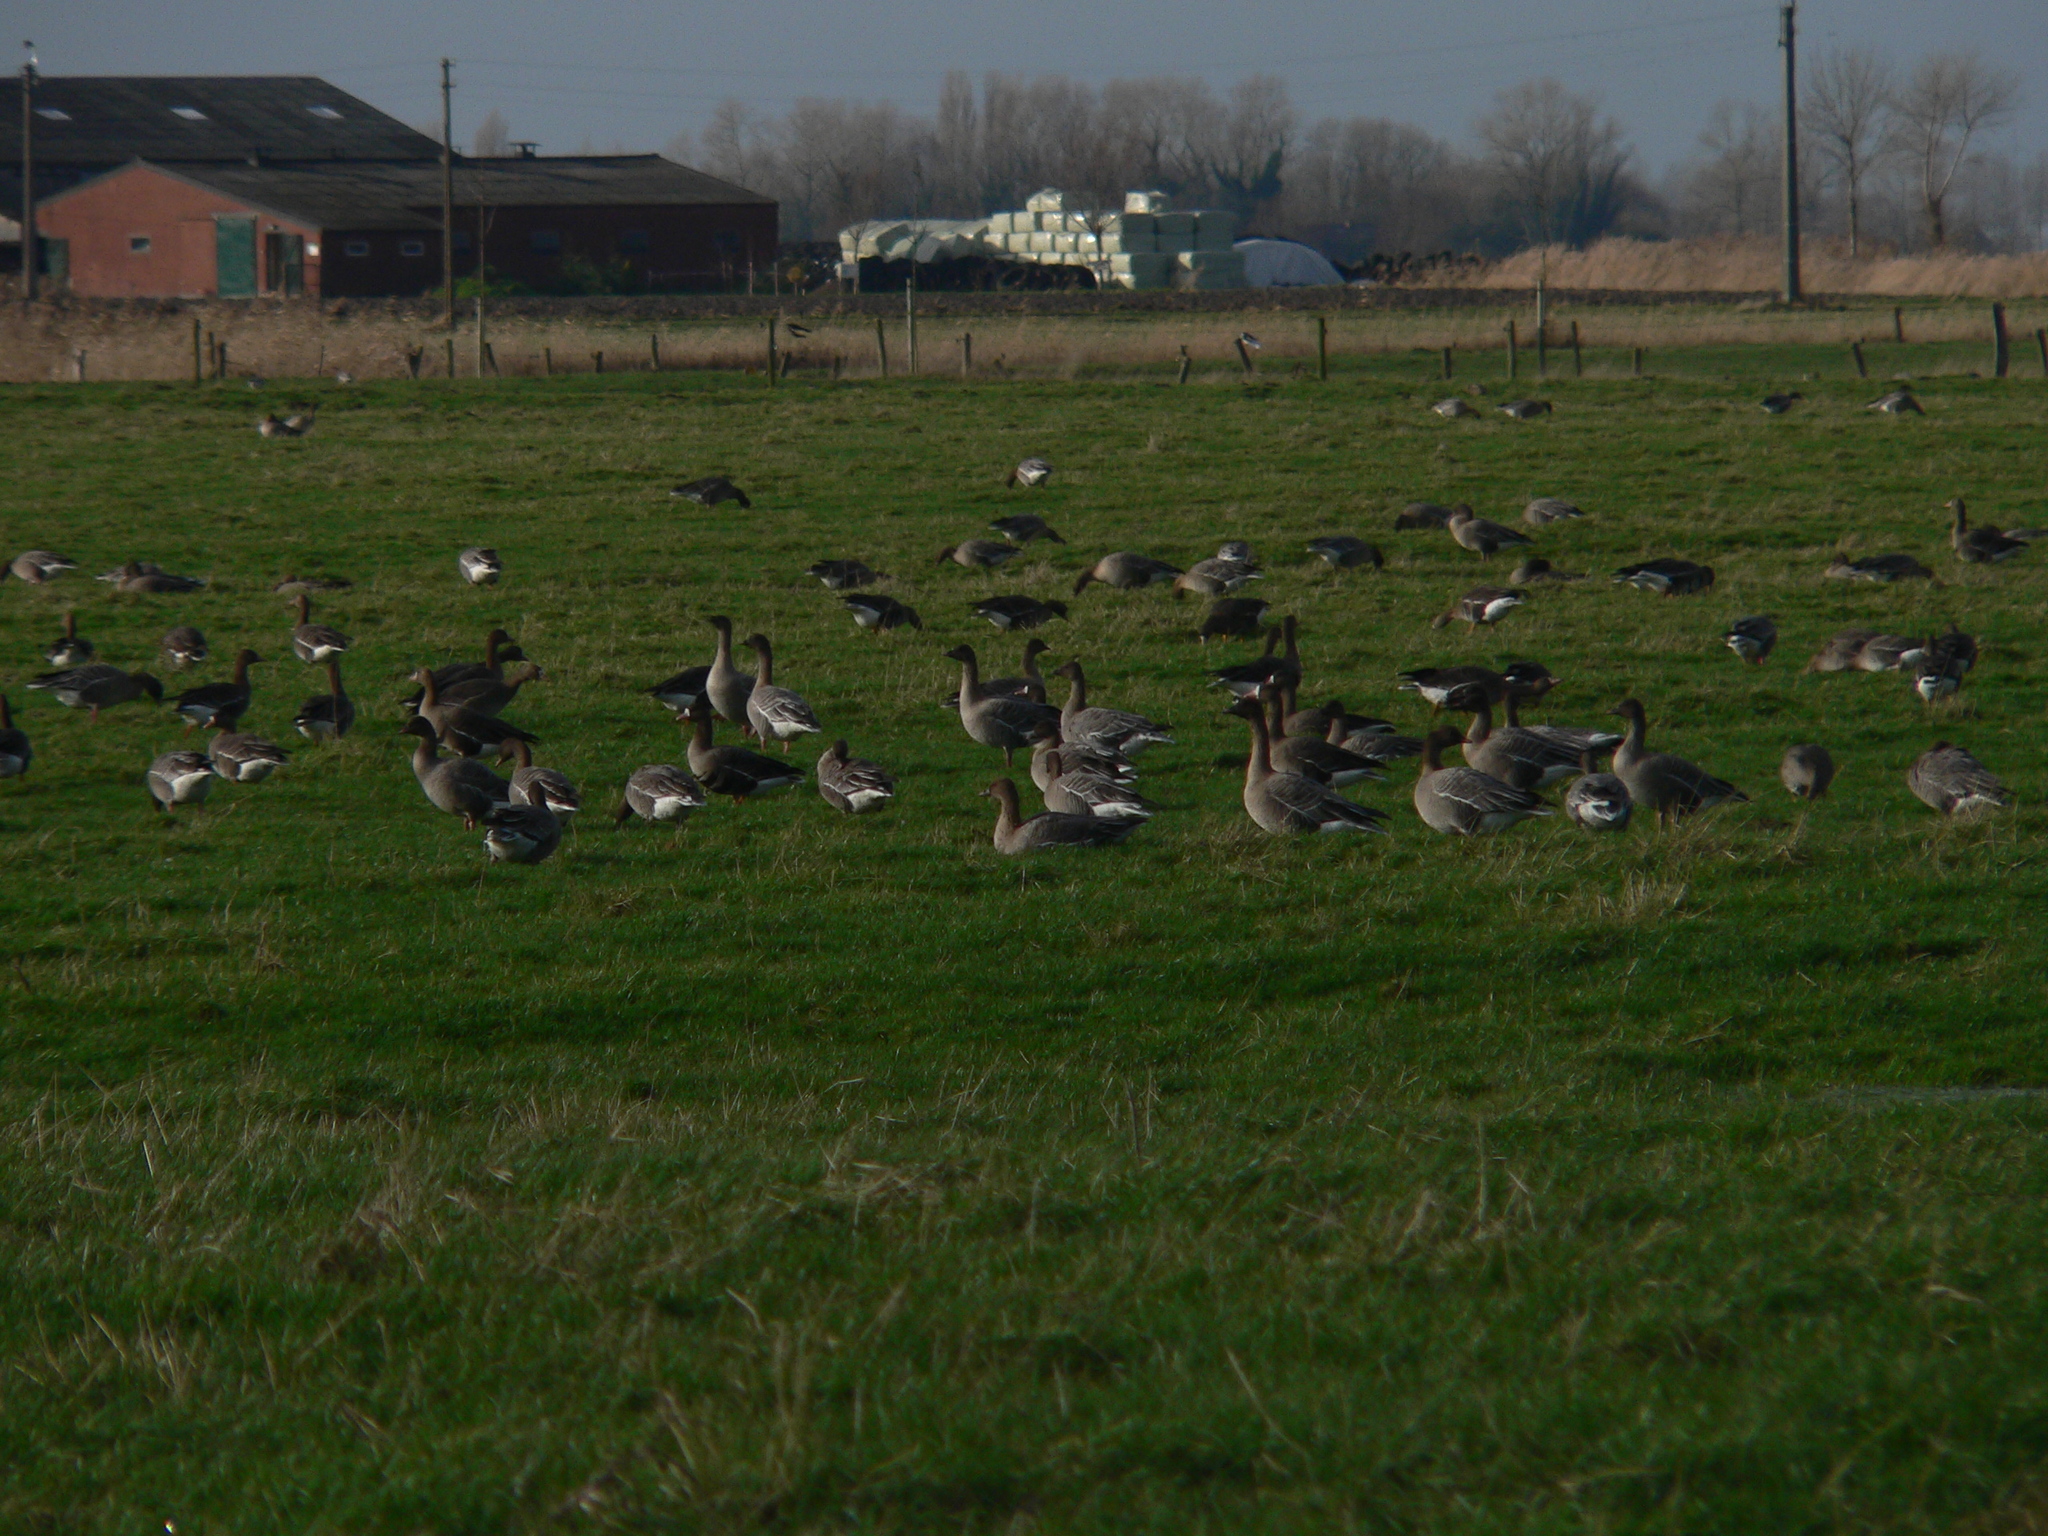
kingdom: Animalia
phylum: Chordata
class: Aves
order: Anseriformes
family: Anatidae
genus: Anser
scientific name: Anser brachyrhynchus
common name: Pink-footed goose
